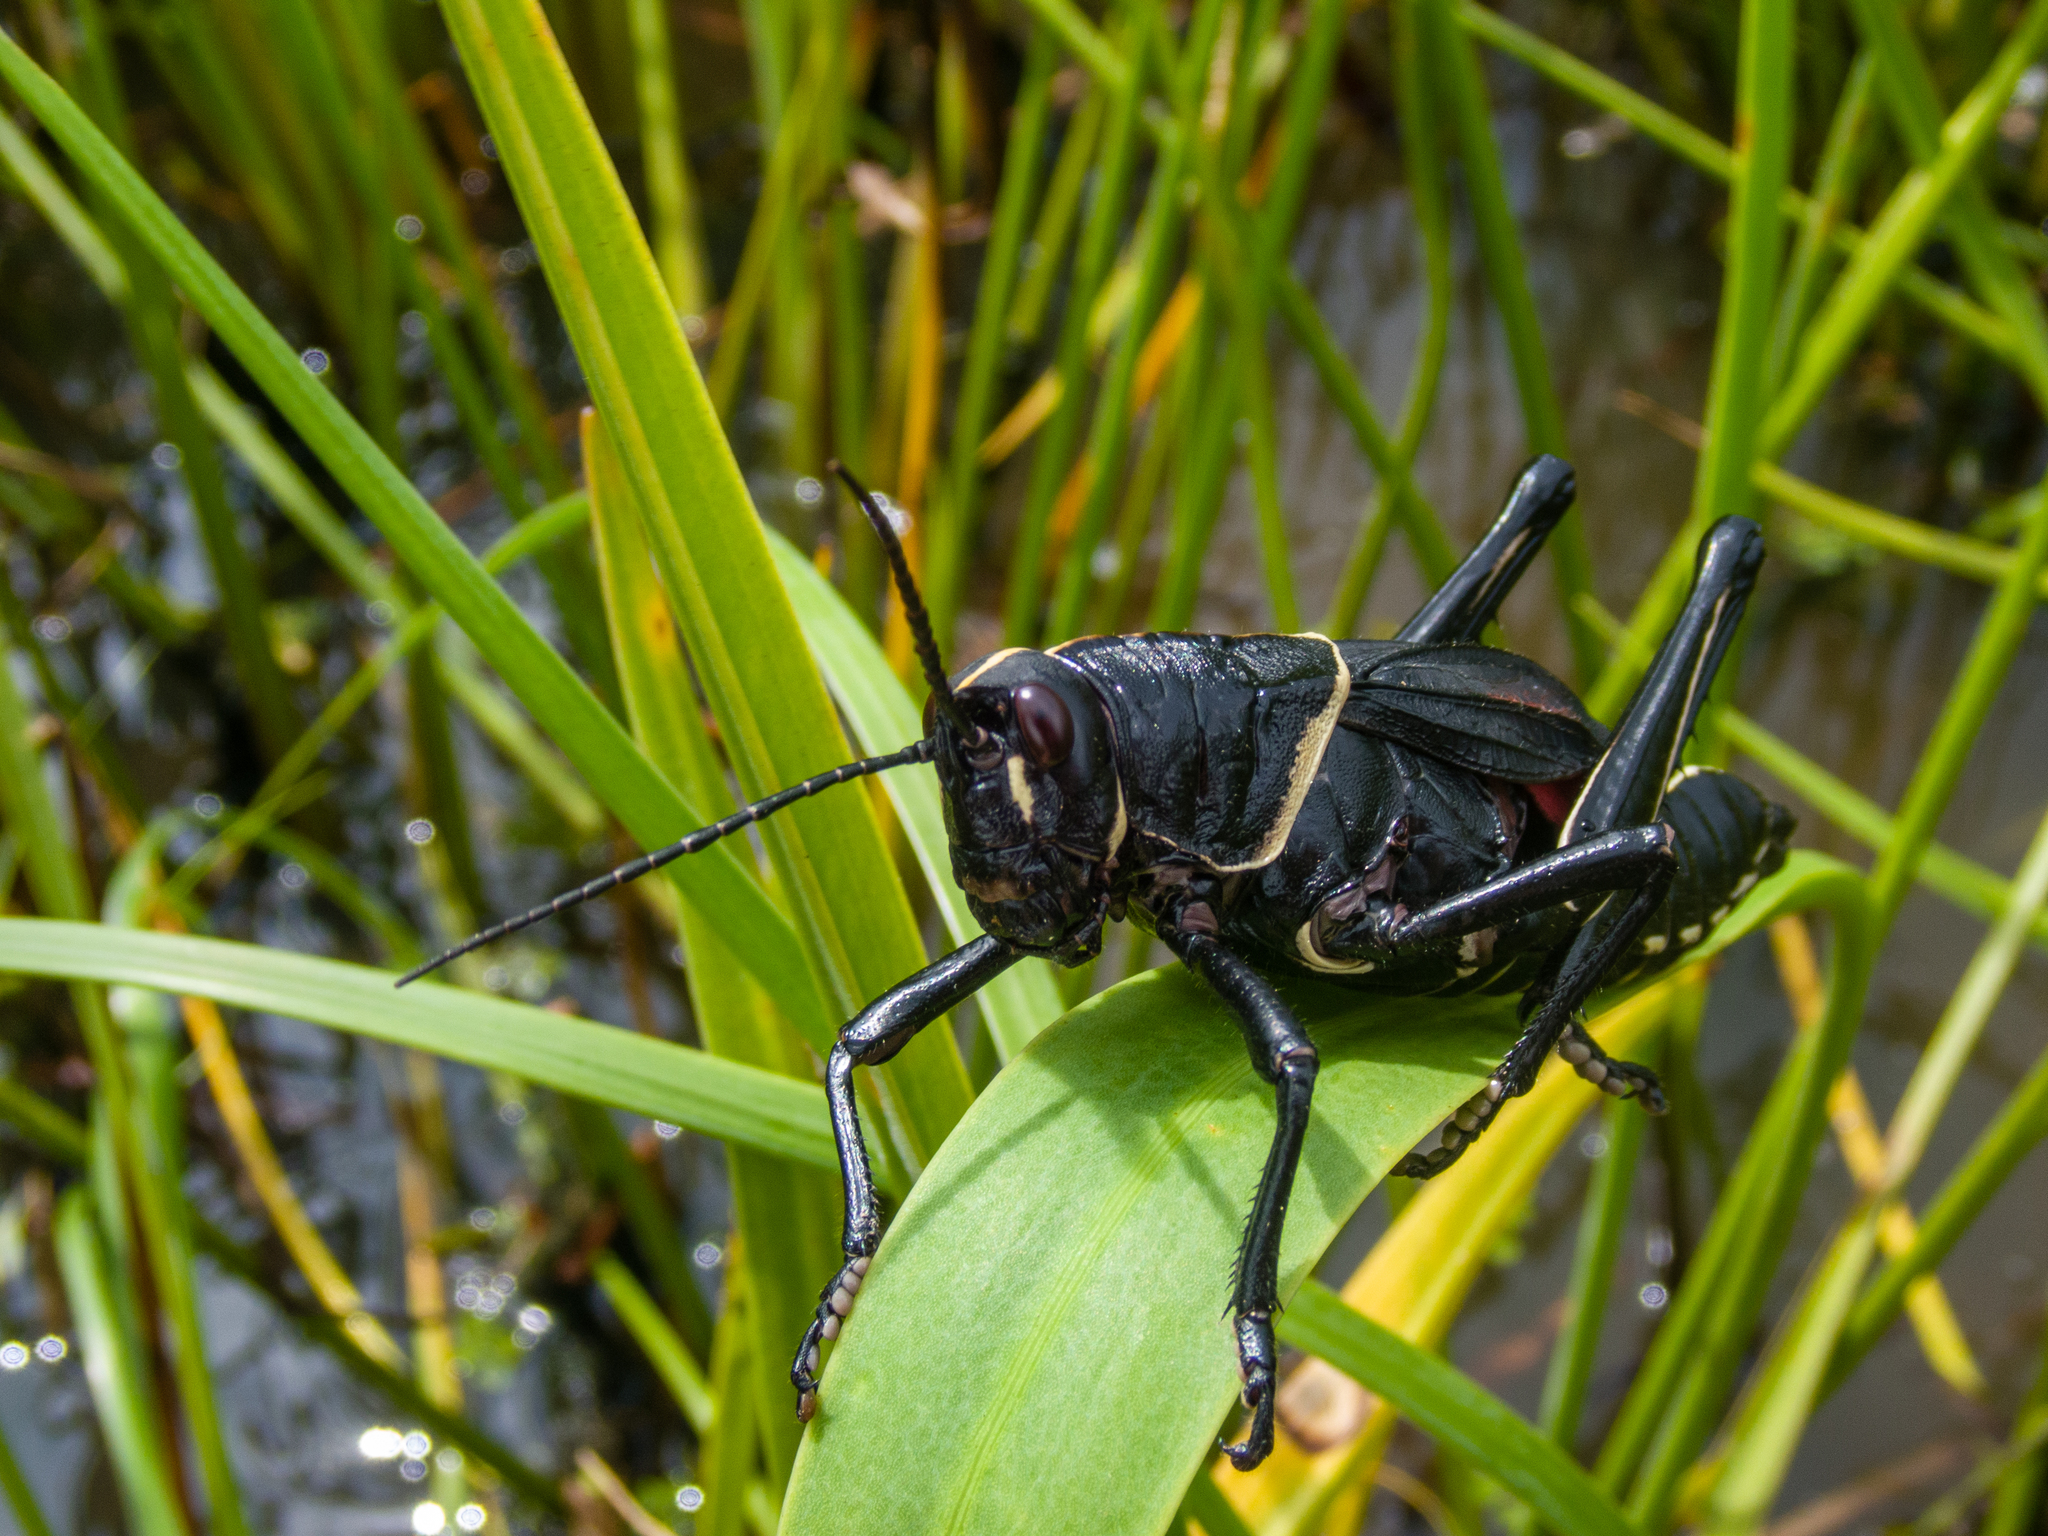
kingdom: Animalia
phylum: Arthropoda
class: Insecta
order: Orthoptera
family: Romaleidae
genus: Romalea
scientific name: Romalea microptera
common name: Eastern lubber grasshopper
